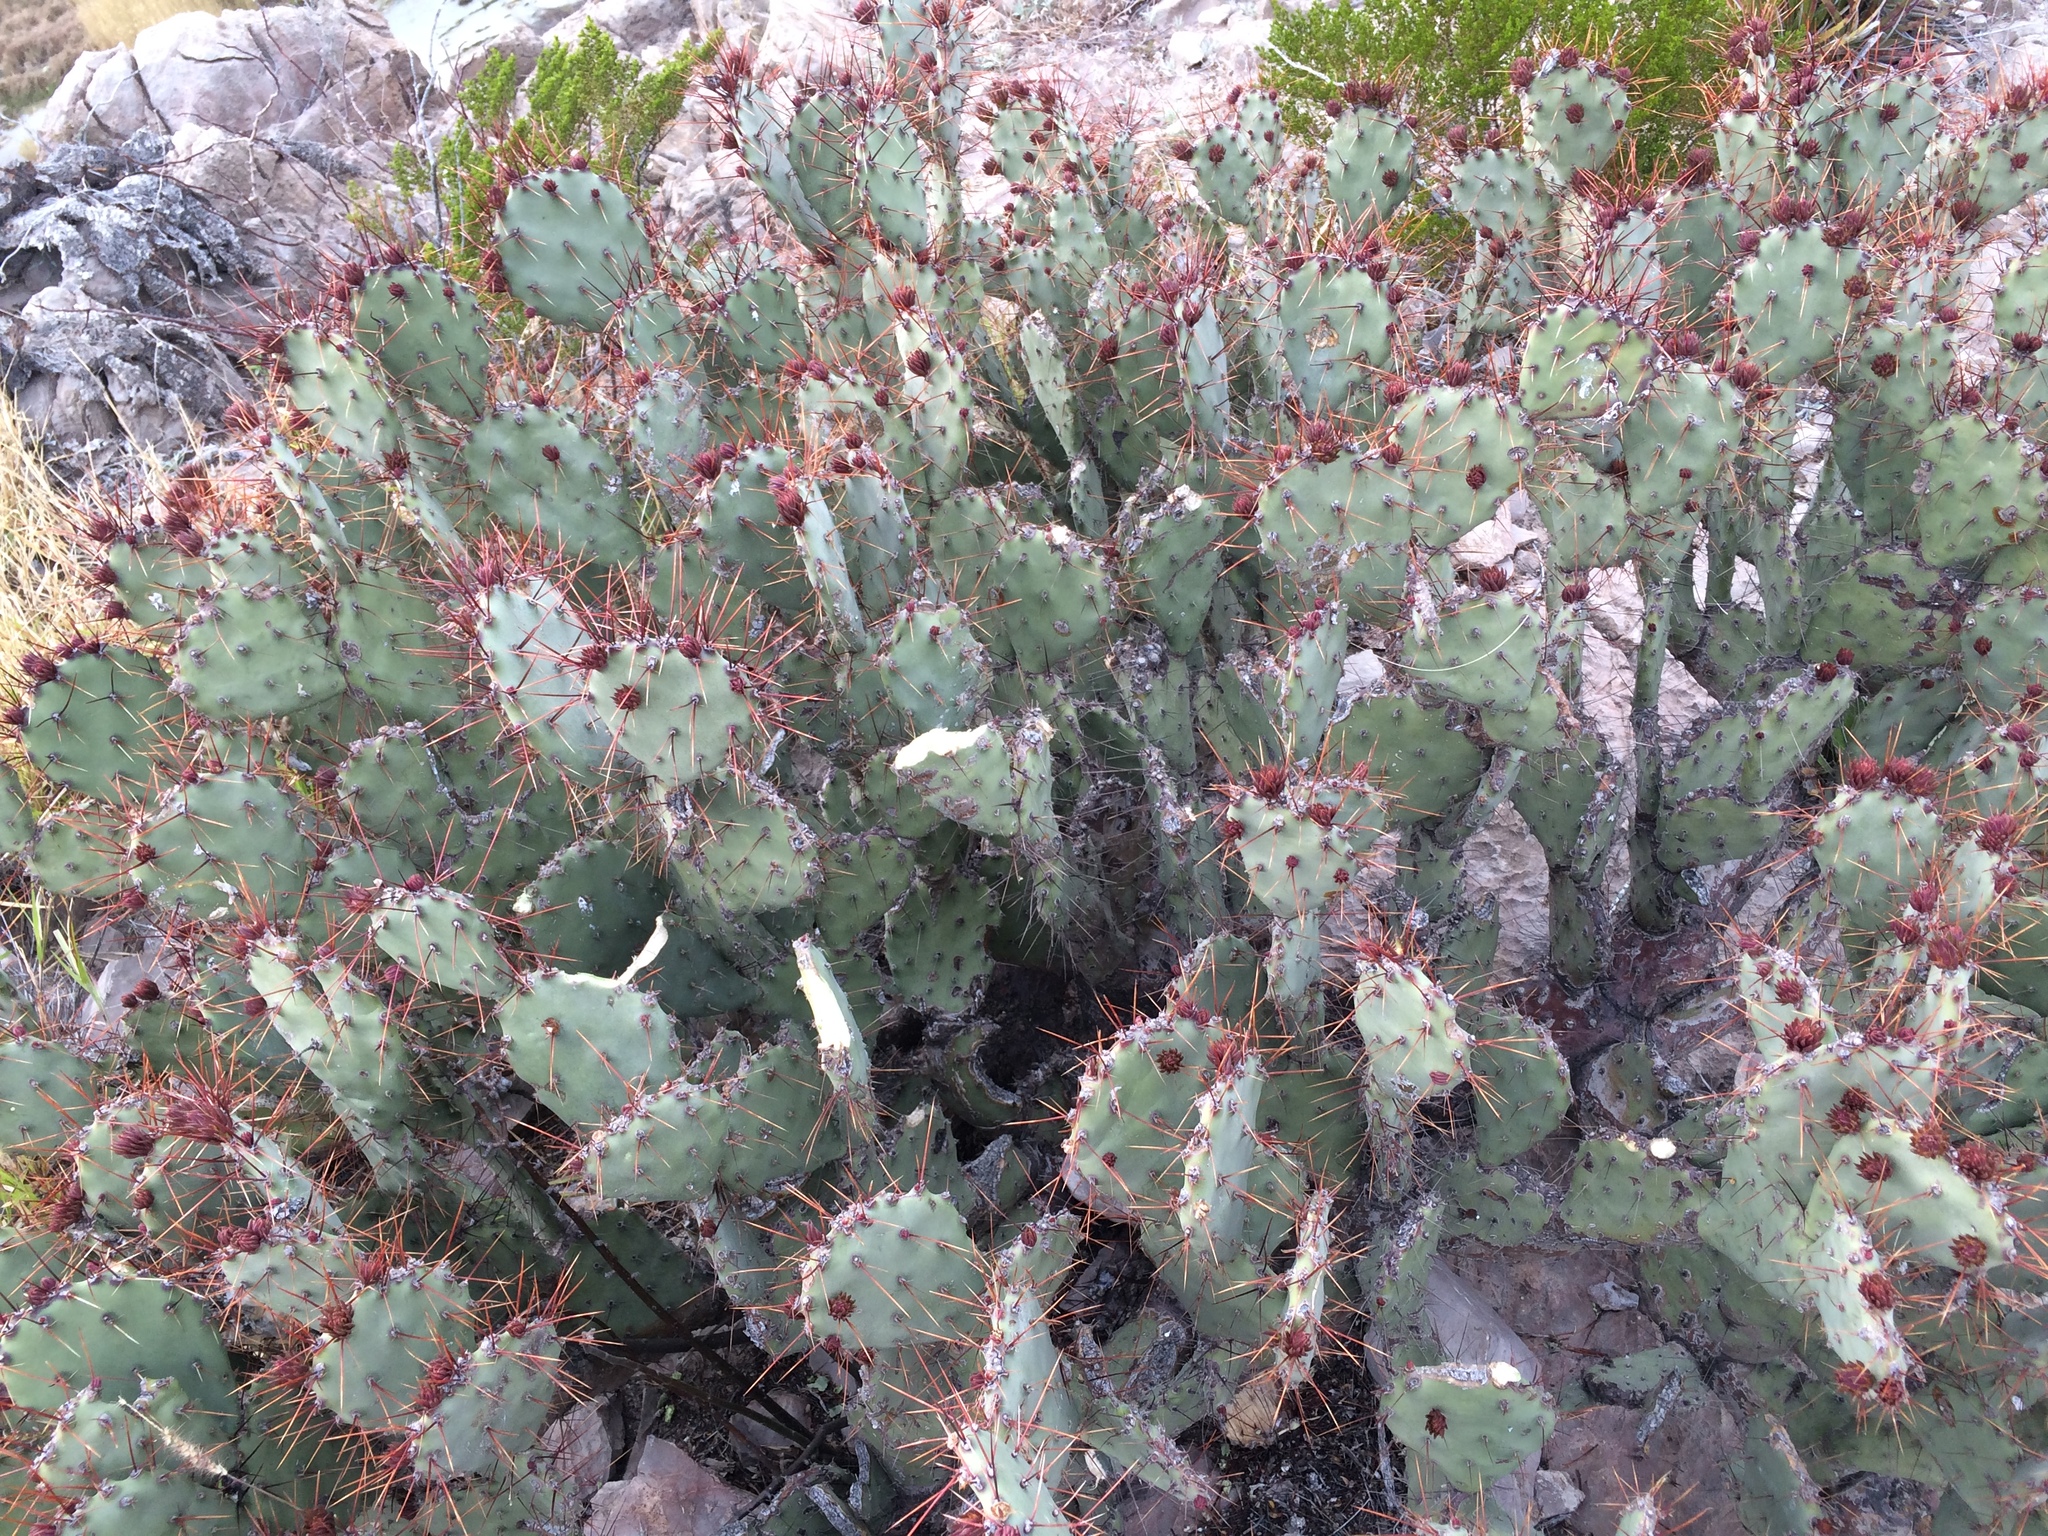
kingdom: Plantae
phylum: Tracheophyta
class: Magnoliopsida
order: Caryophyllales
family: Cactaceae
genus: Opuntia
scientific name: Opuntia spinosibacca
